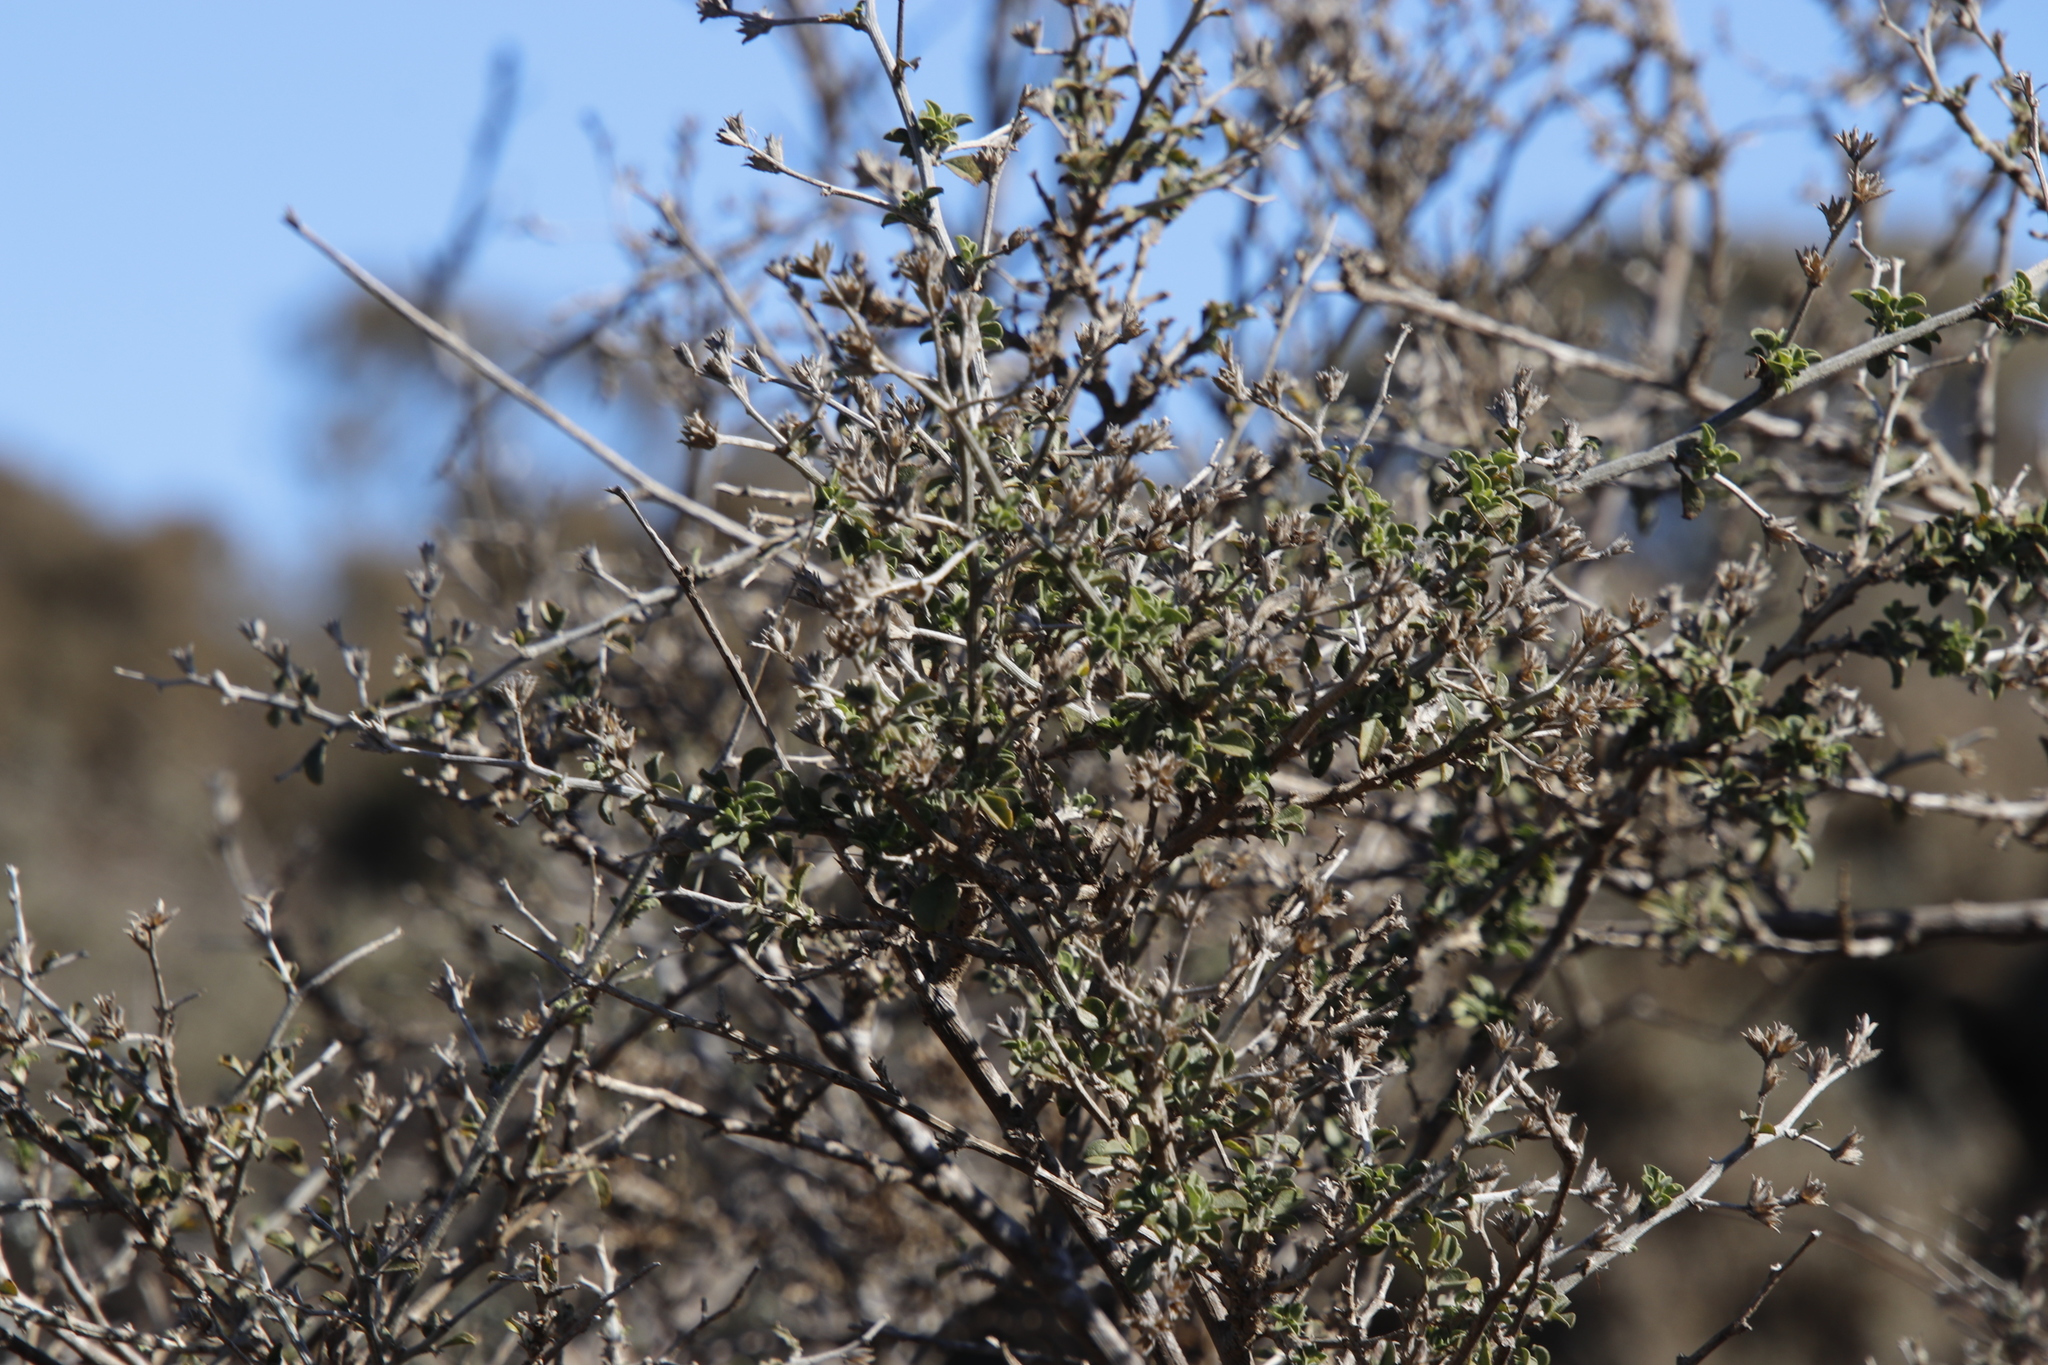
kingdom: Plantae
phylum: Tracheophyta
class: Magnoliopsida
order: Fabales
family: Fabaceae
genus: Psoralea
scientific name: Psoralea hirta
